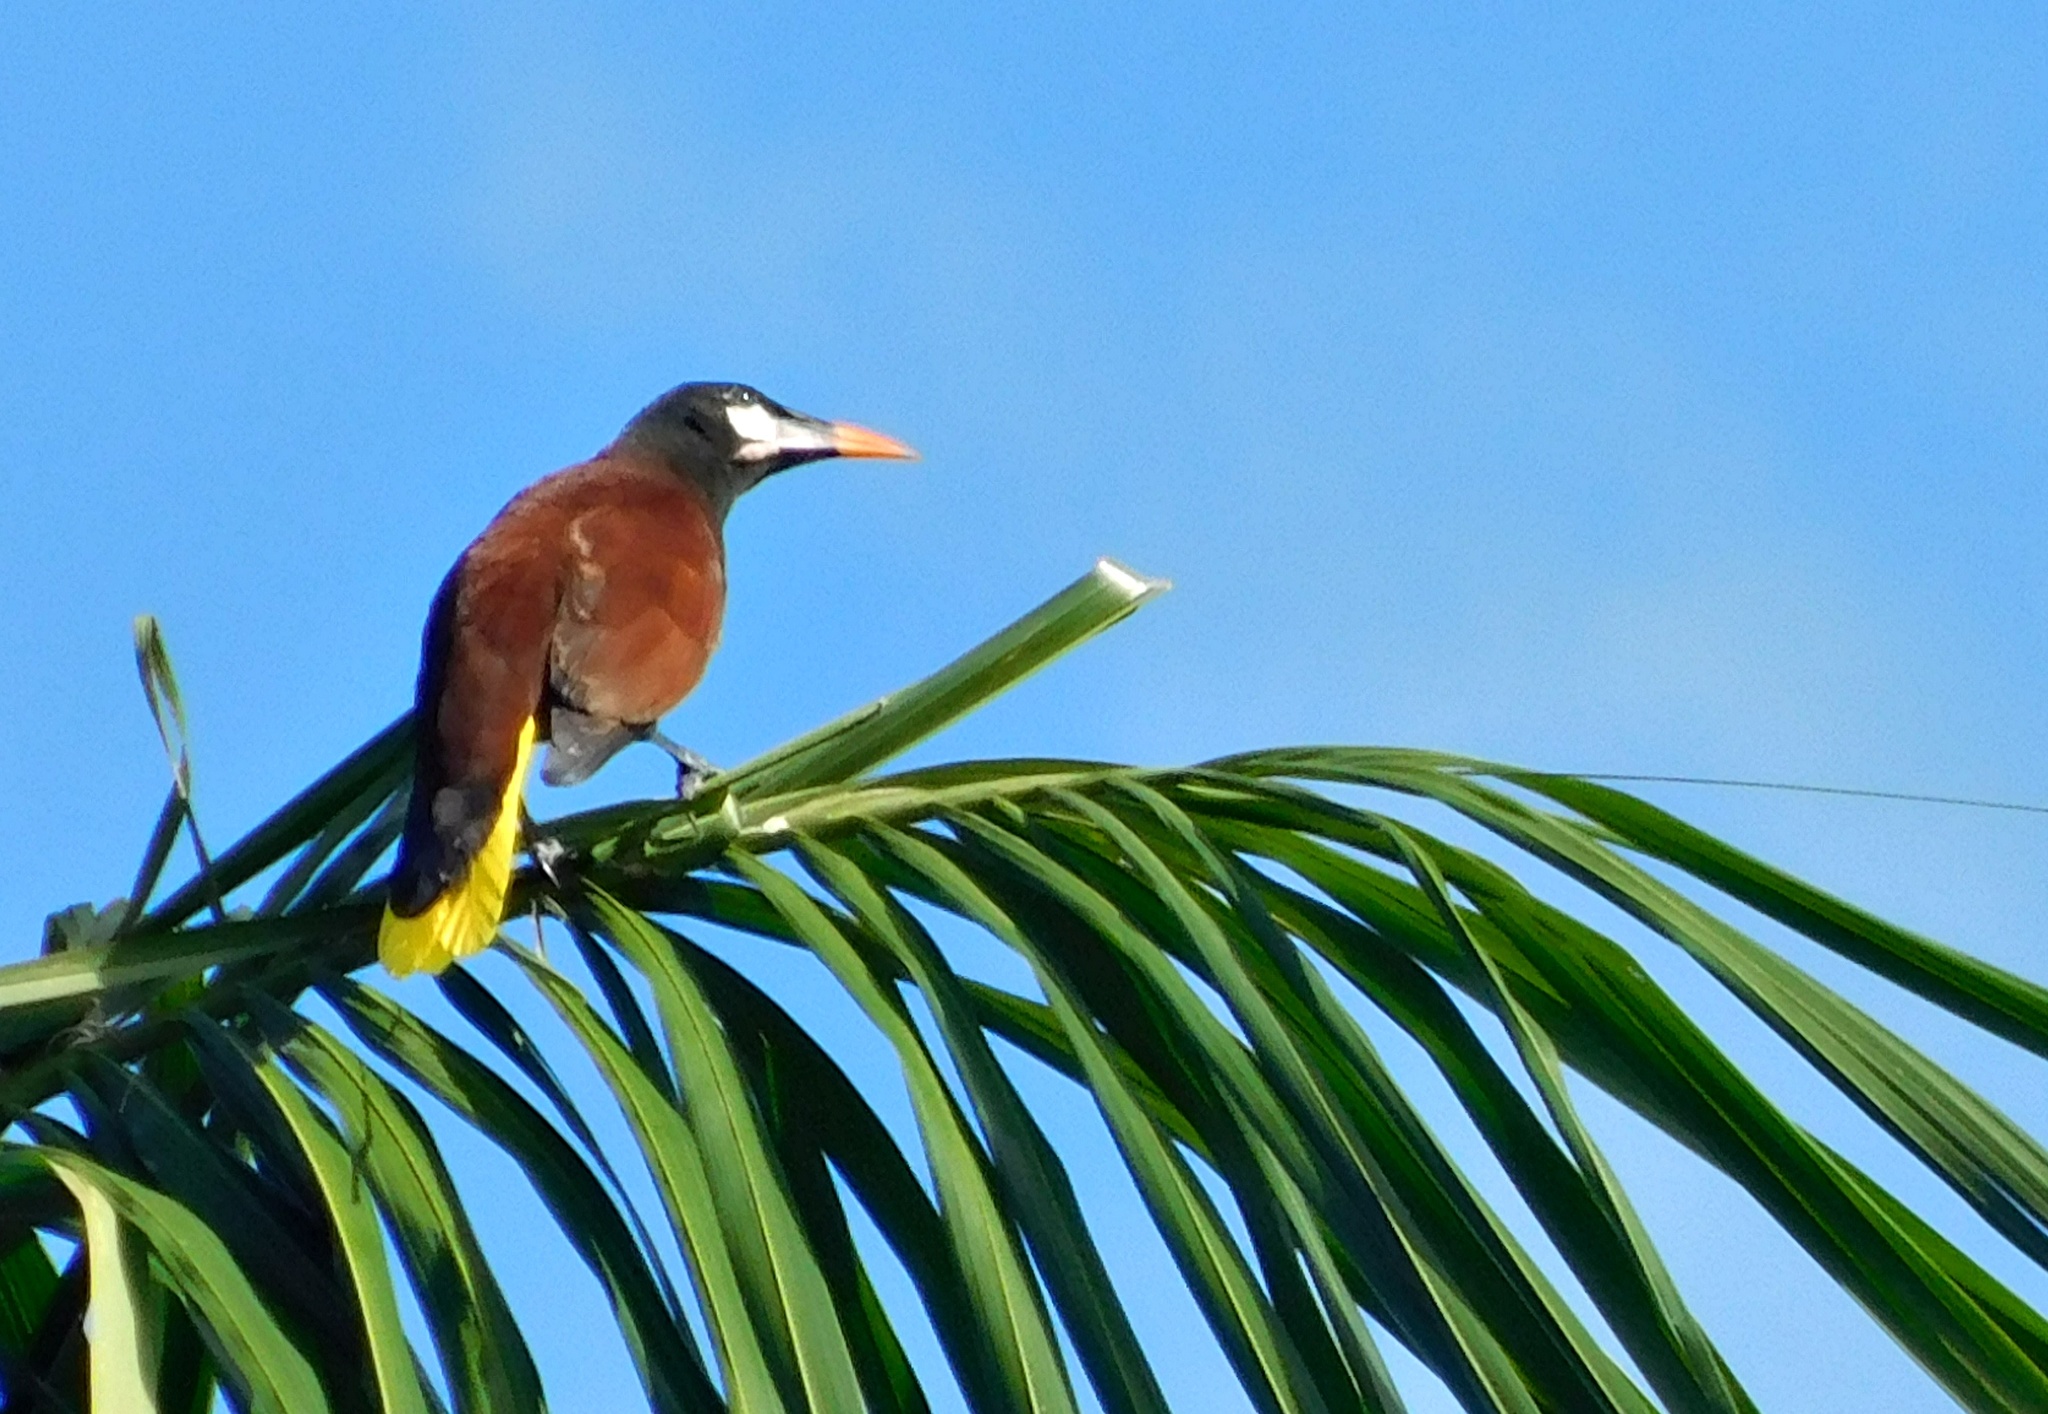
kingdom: Animalia
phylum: Chordata
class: Aves
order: Passeriformes
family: Icteridae
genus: Psarocolius
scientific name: Psarocolius montezuma
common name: Montezuma oropendola
